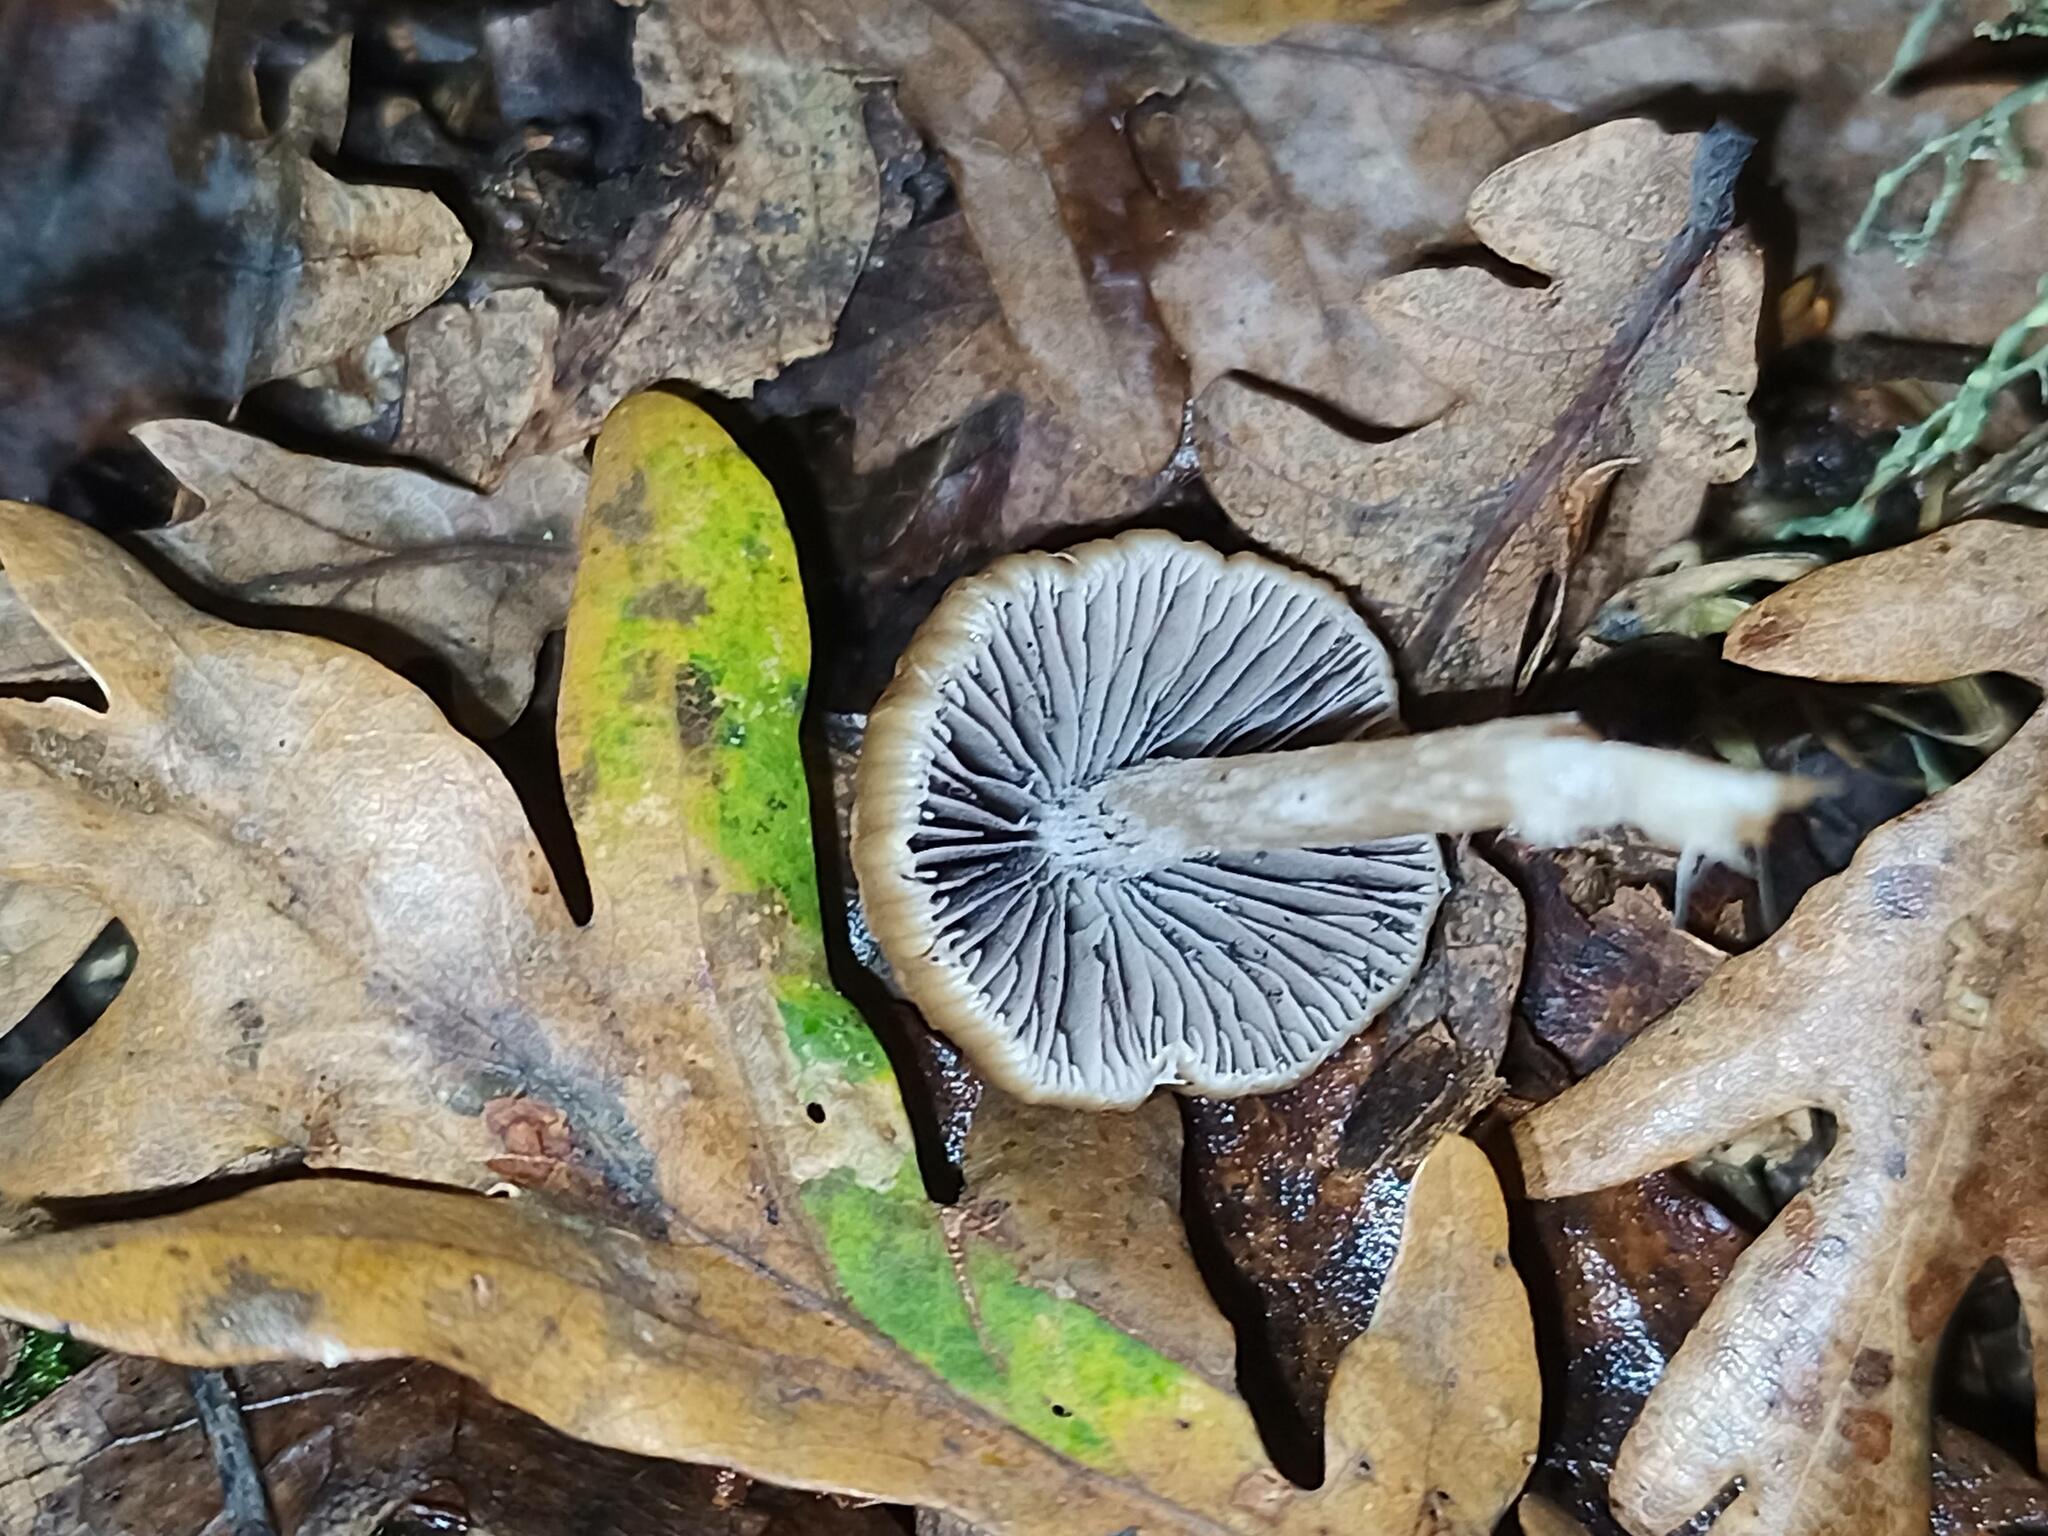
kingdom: Fungi
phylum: Basidiomycota
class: Agaricomycetes
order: Agaricales
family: Psathyrellaceae
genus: Psathyrella
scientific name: Psathyrella piluliformis
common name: Common stump brittlestem
